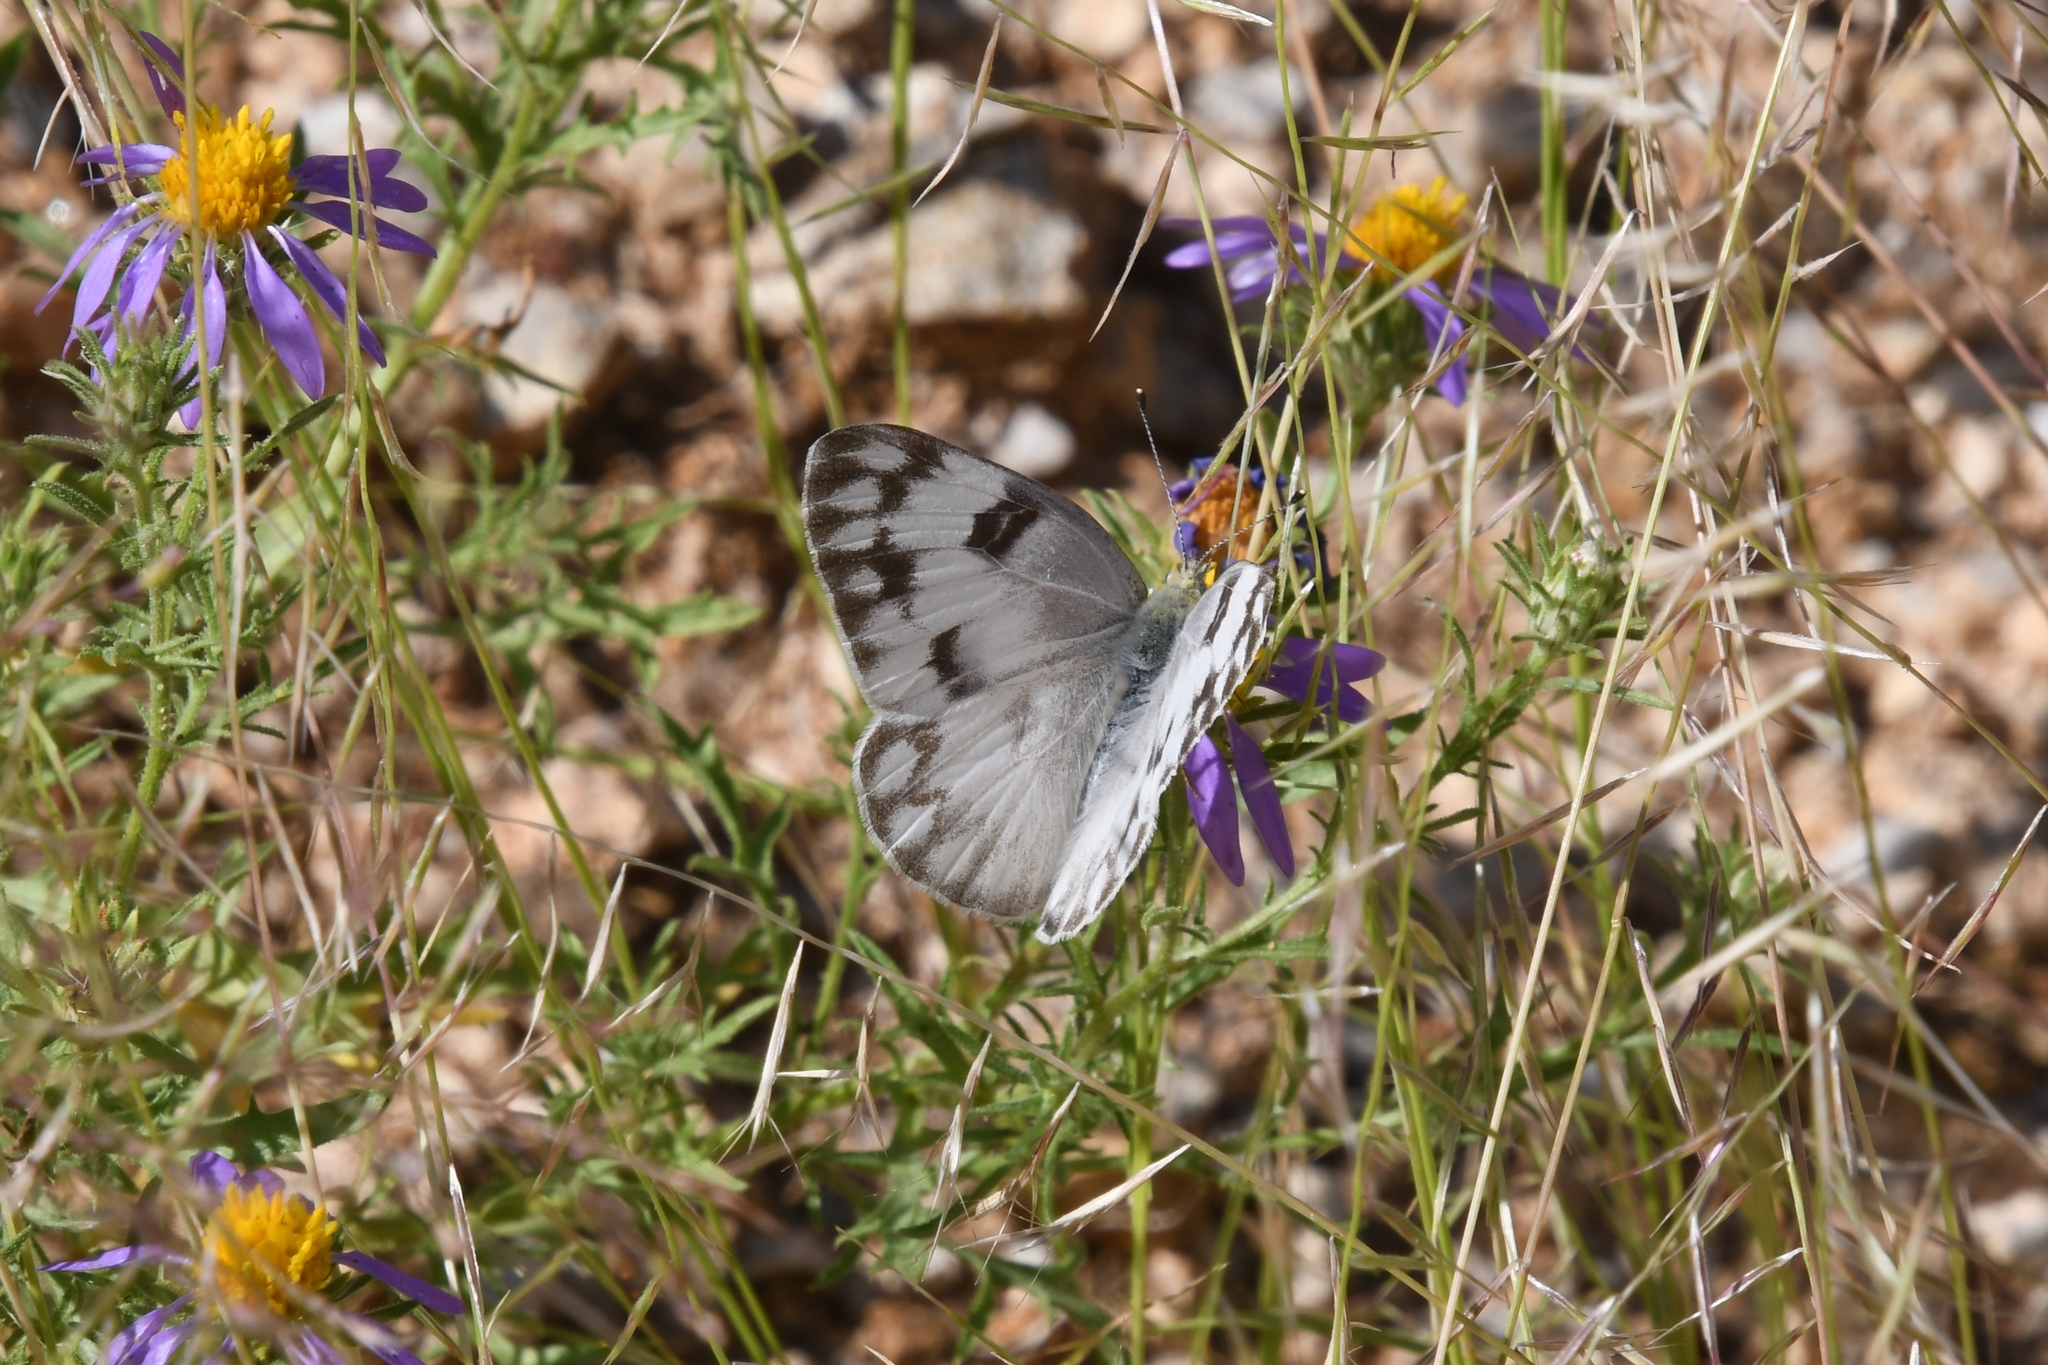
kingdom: Animalia
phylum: Arthropoda
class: Insecta
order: Lepidoptera
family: Pieridae
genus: Pontia
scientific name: Pontia protodice
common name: Checkered white
